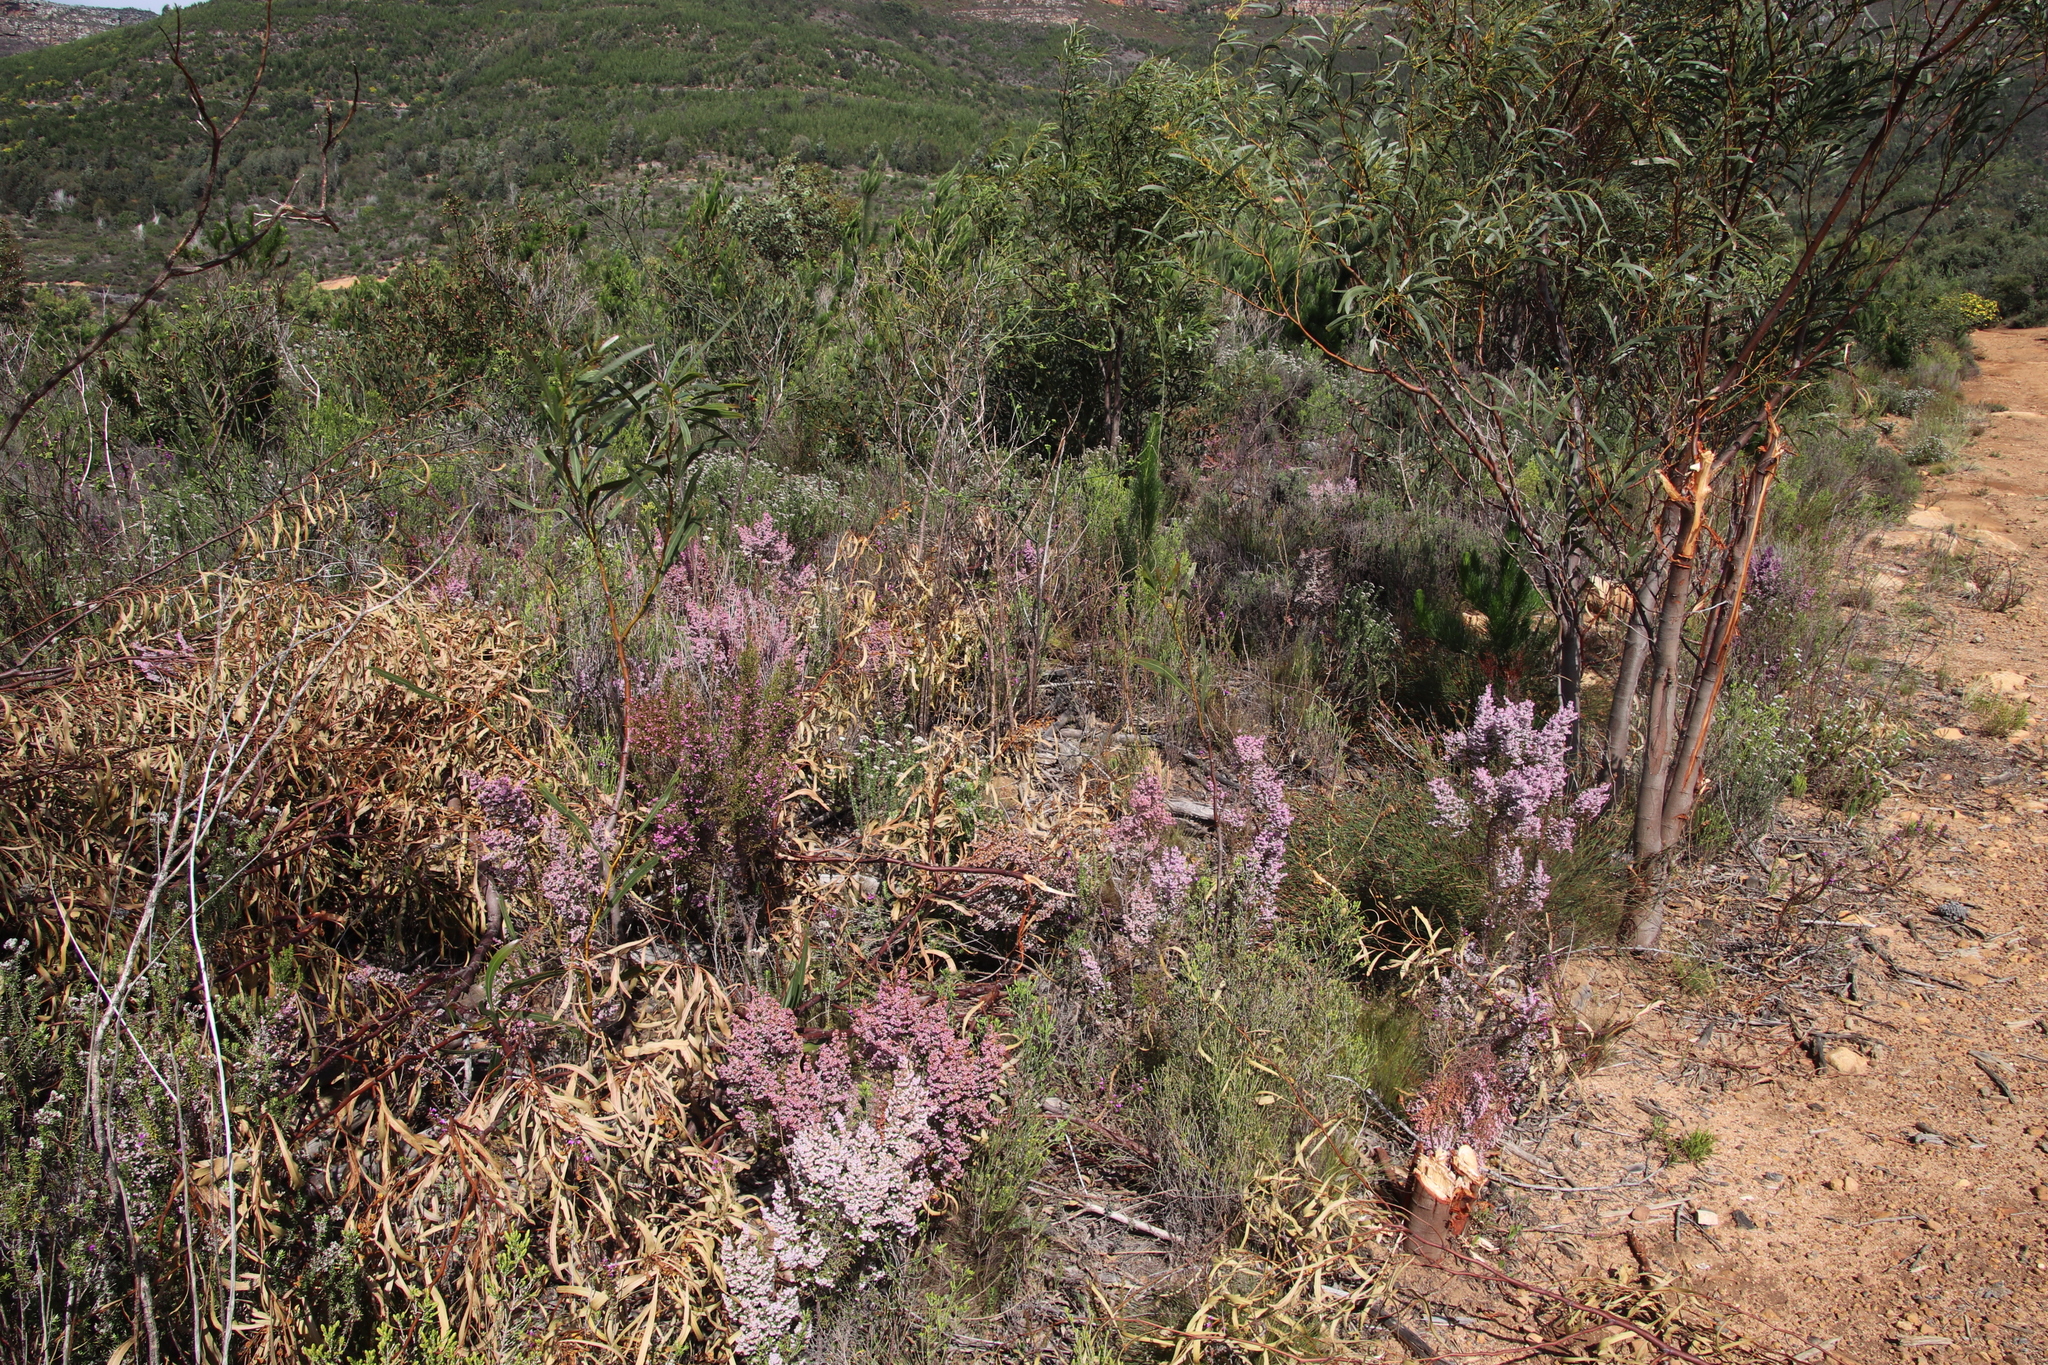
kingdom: Plantae
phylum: Tracheophyta
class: Magnoliopsida
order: Ericales
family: Ericaceae
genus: Erica
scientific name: Erica mauritanica
